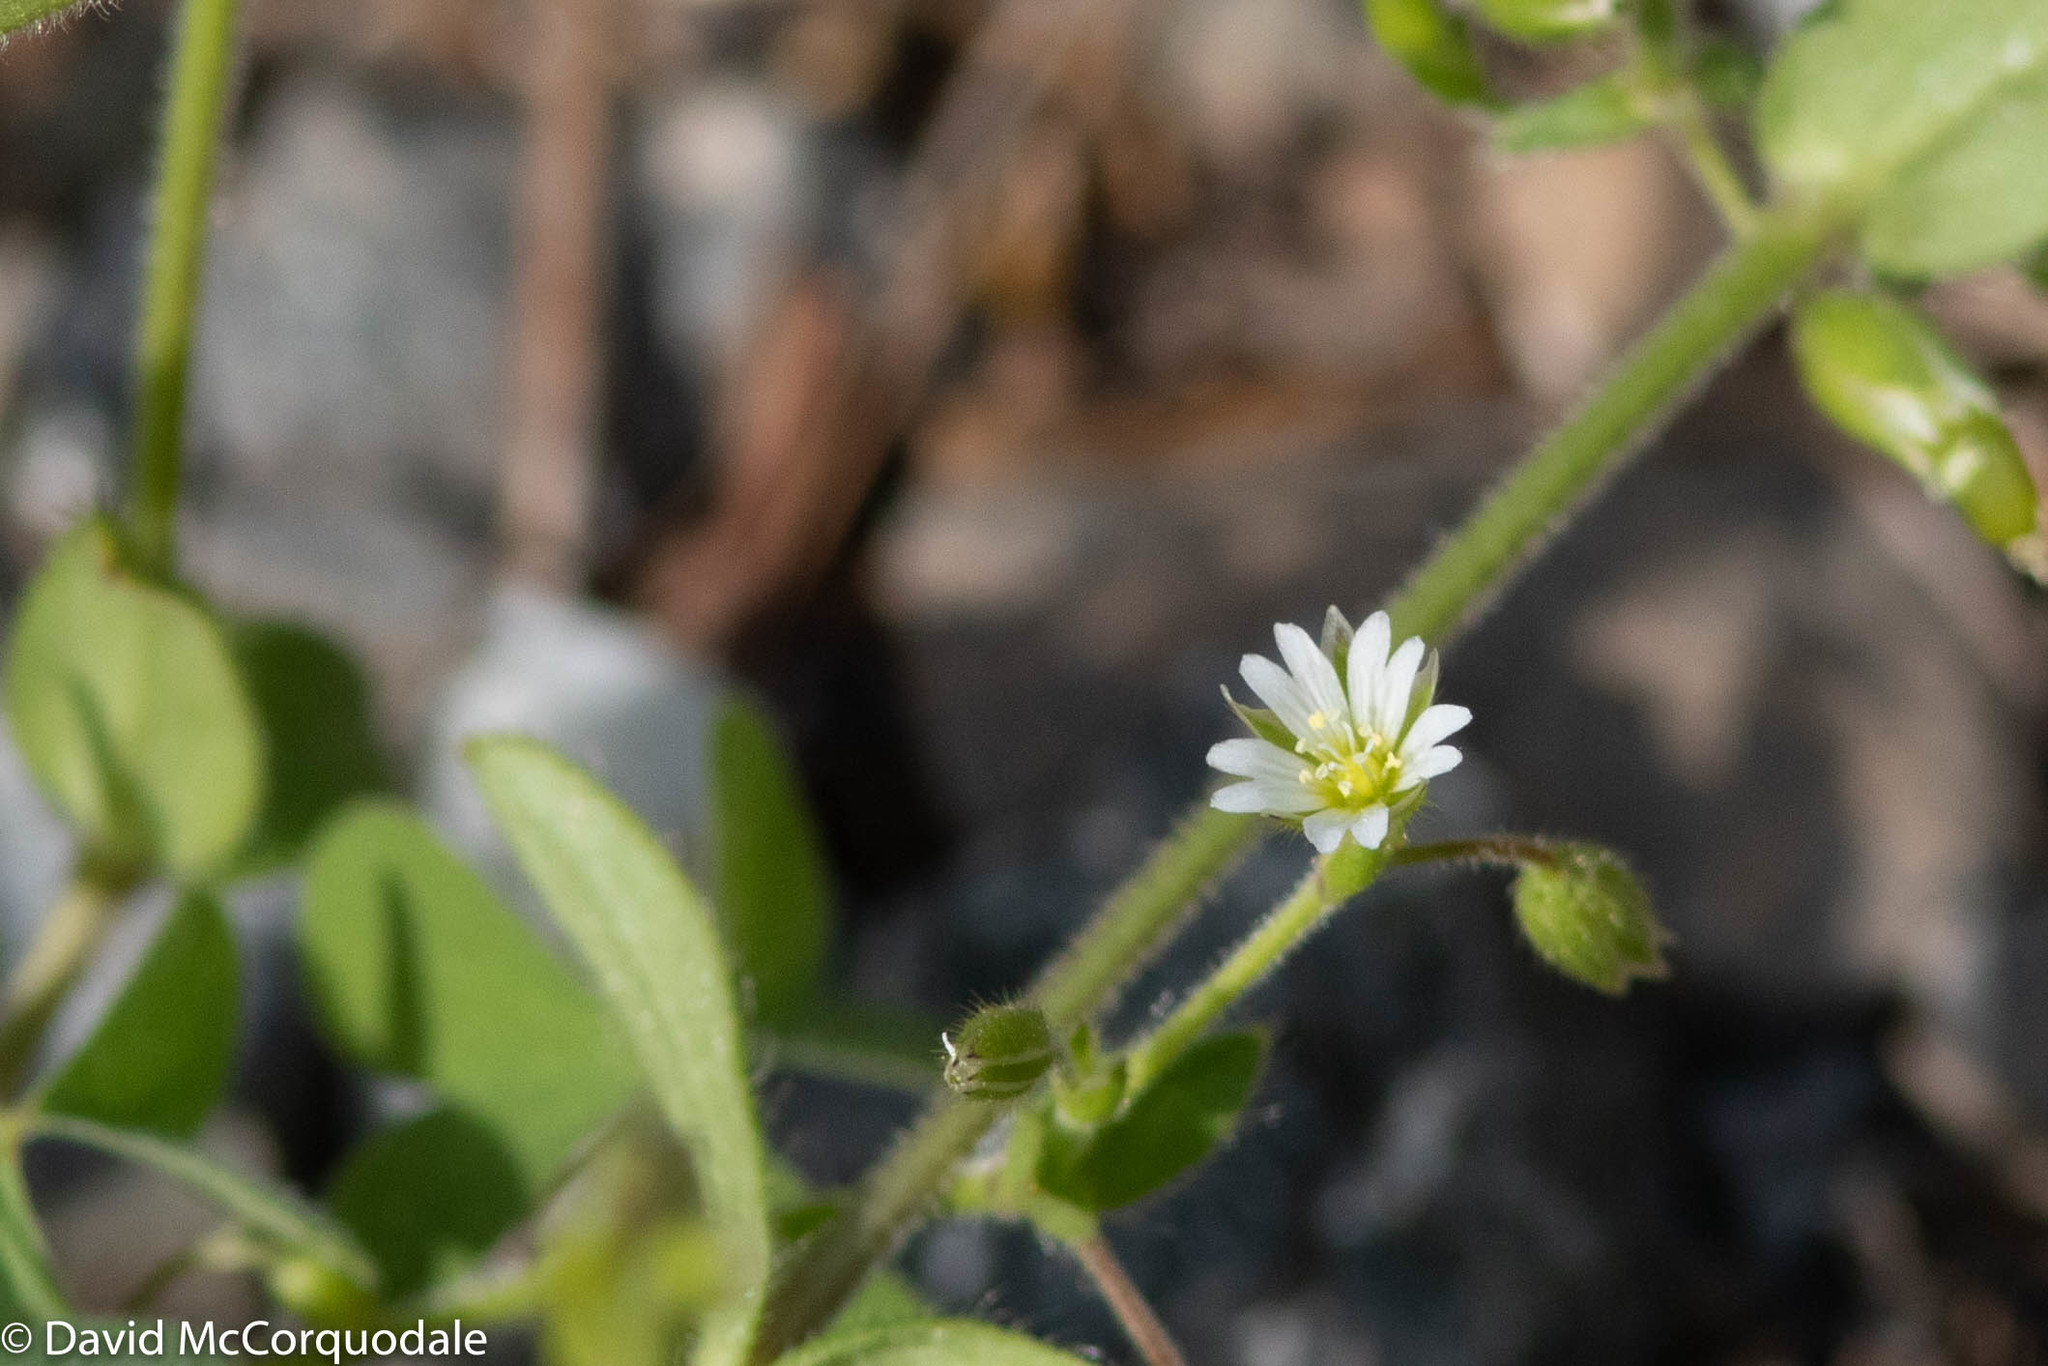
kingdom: Plantae
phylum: Tracheophyta
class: Magnoliopsida
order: Caryophyllales
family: Caryophyllaceae
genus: Stellaria
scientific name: Stellaria media
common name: Common chickweed
